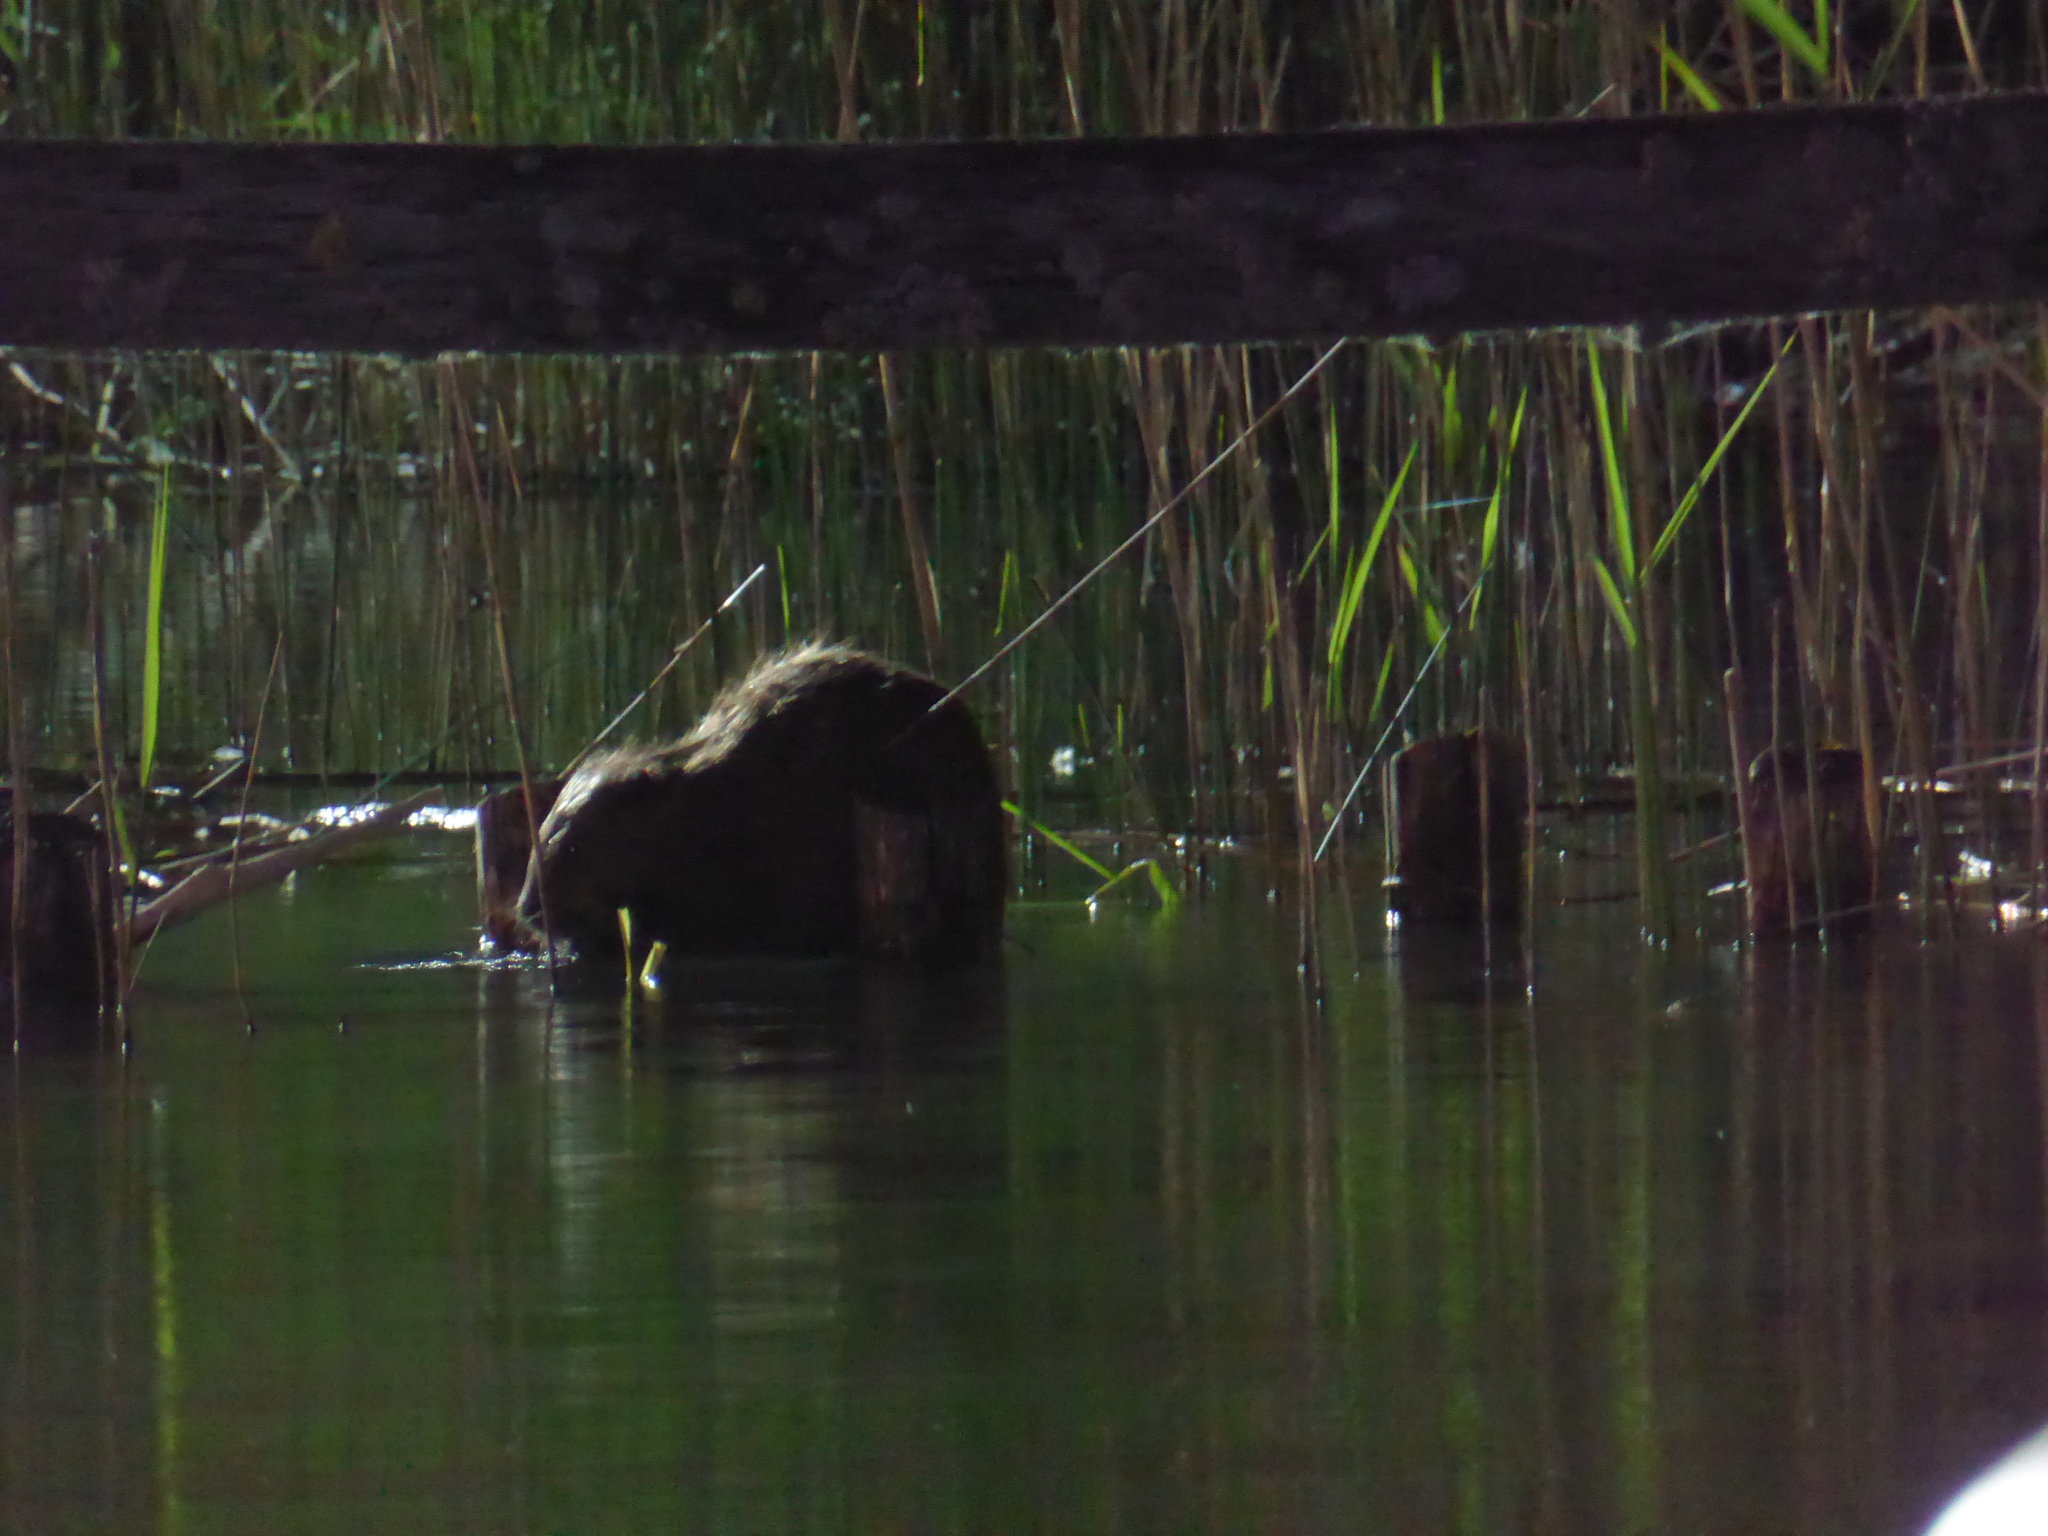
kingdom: Animalia
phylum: Chordata
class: Mammalia
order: Rodentia
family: Castoridae
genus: Castor
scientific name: Castor fiber
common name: Eurasian beaver
